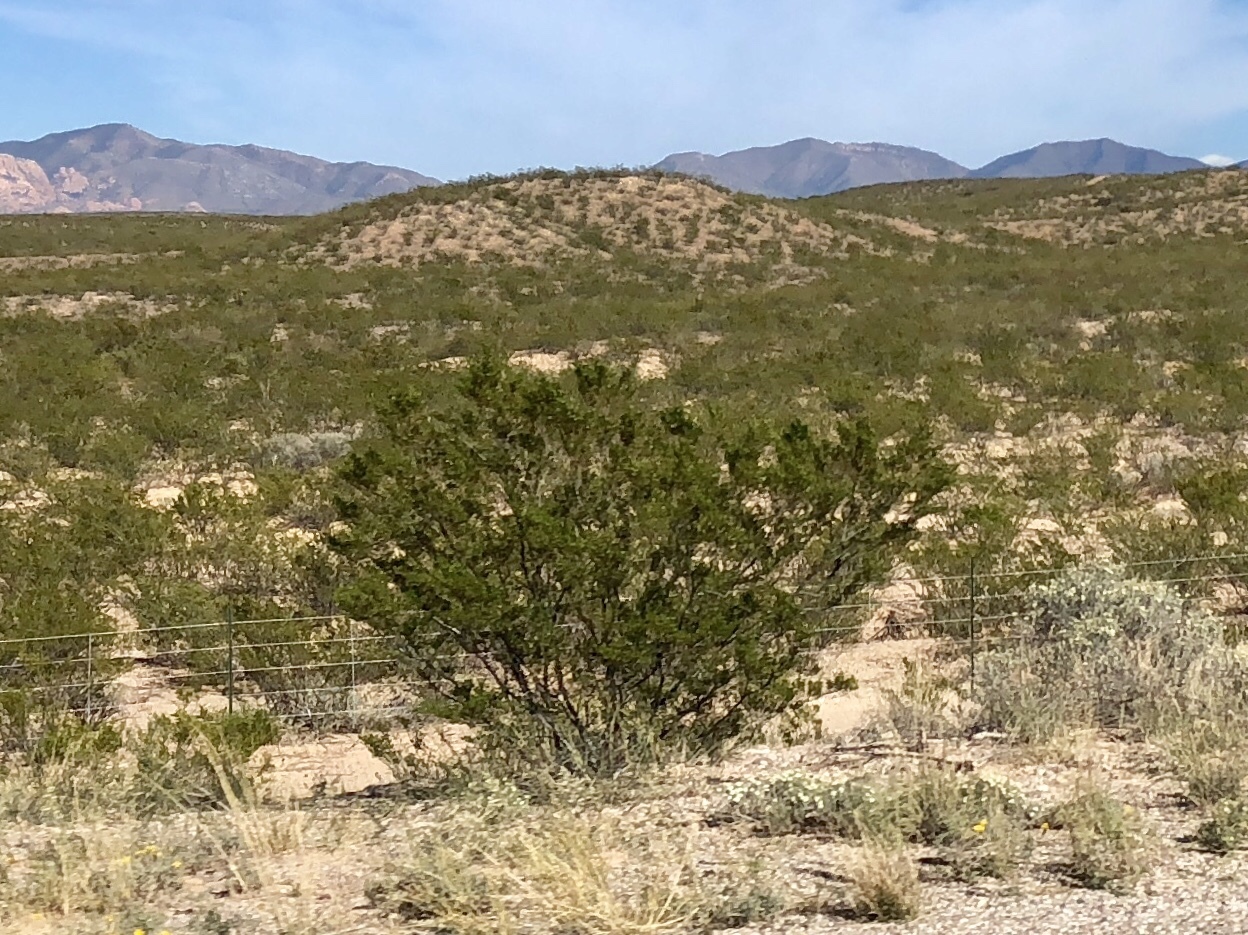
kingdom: Plantae
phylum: Tracheophyta
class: Magnoliopsida
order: Zygophyllales
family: Zygophyllaceae
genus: Larrea
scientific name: Larrea tridentata
